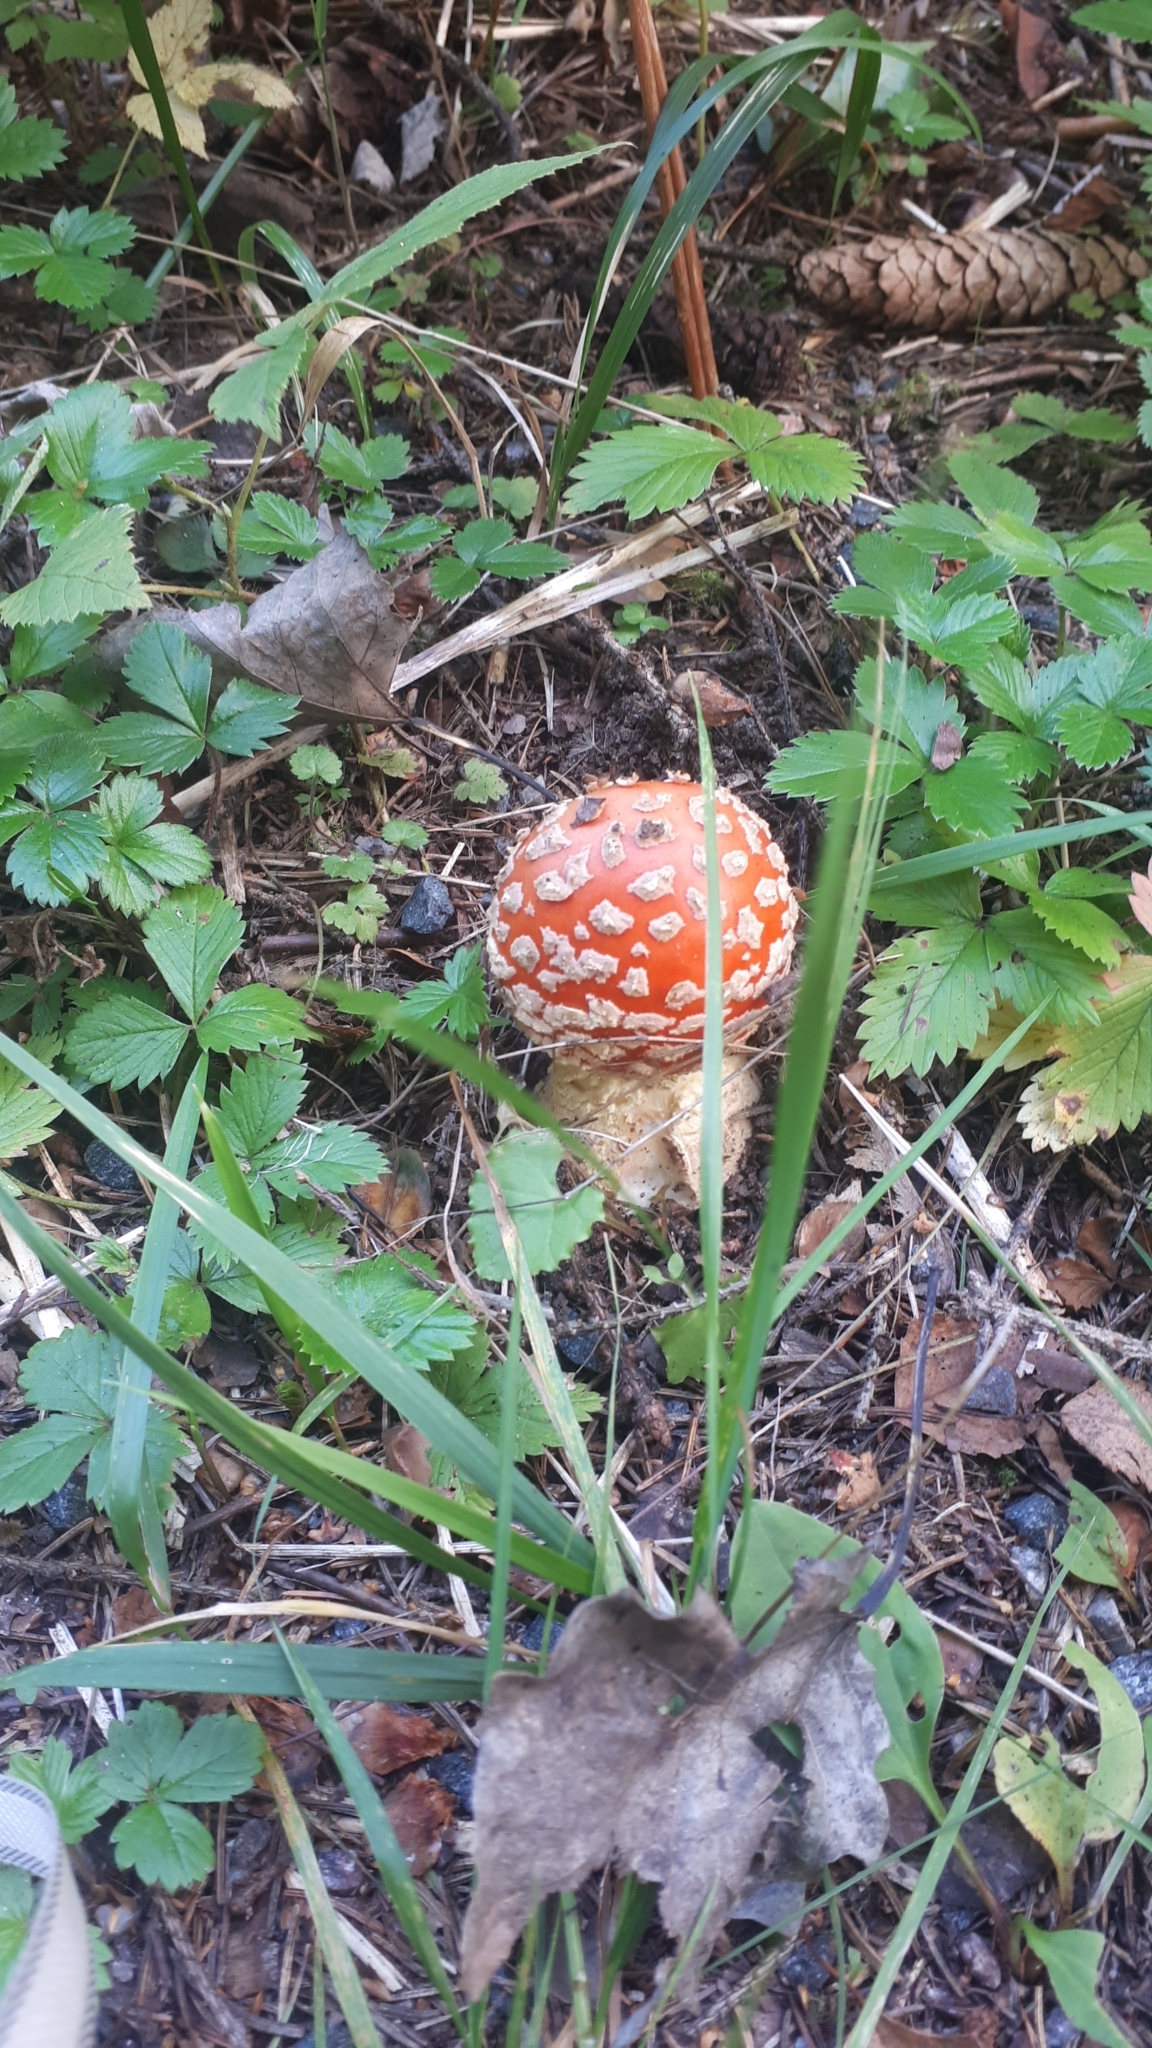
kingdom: Fungi
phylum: Basidiomycota
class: Agaricomycetes
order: Agaricales
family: Amanitaceae
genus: Amanita
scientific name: Amanita muscaria
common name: Fly agaric
